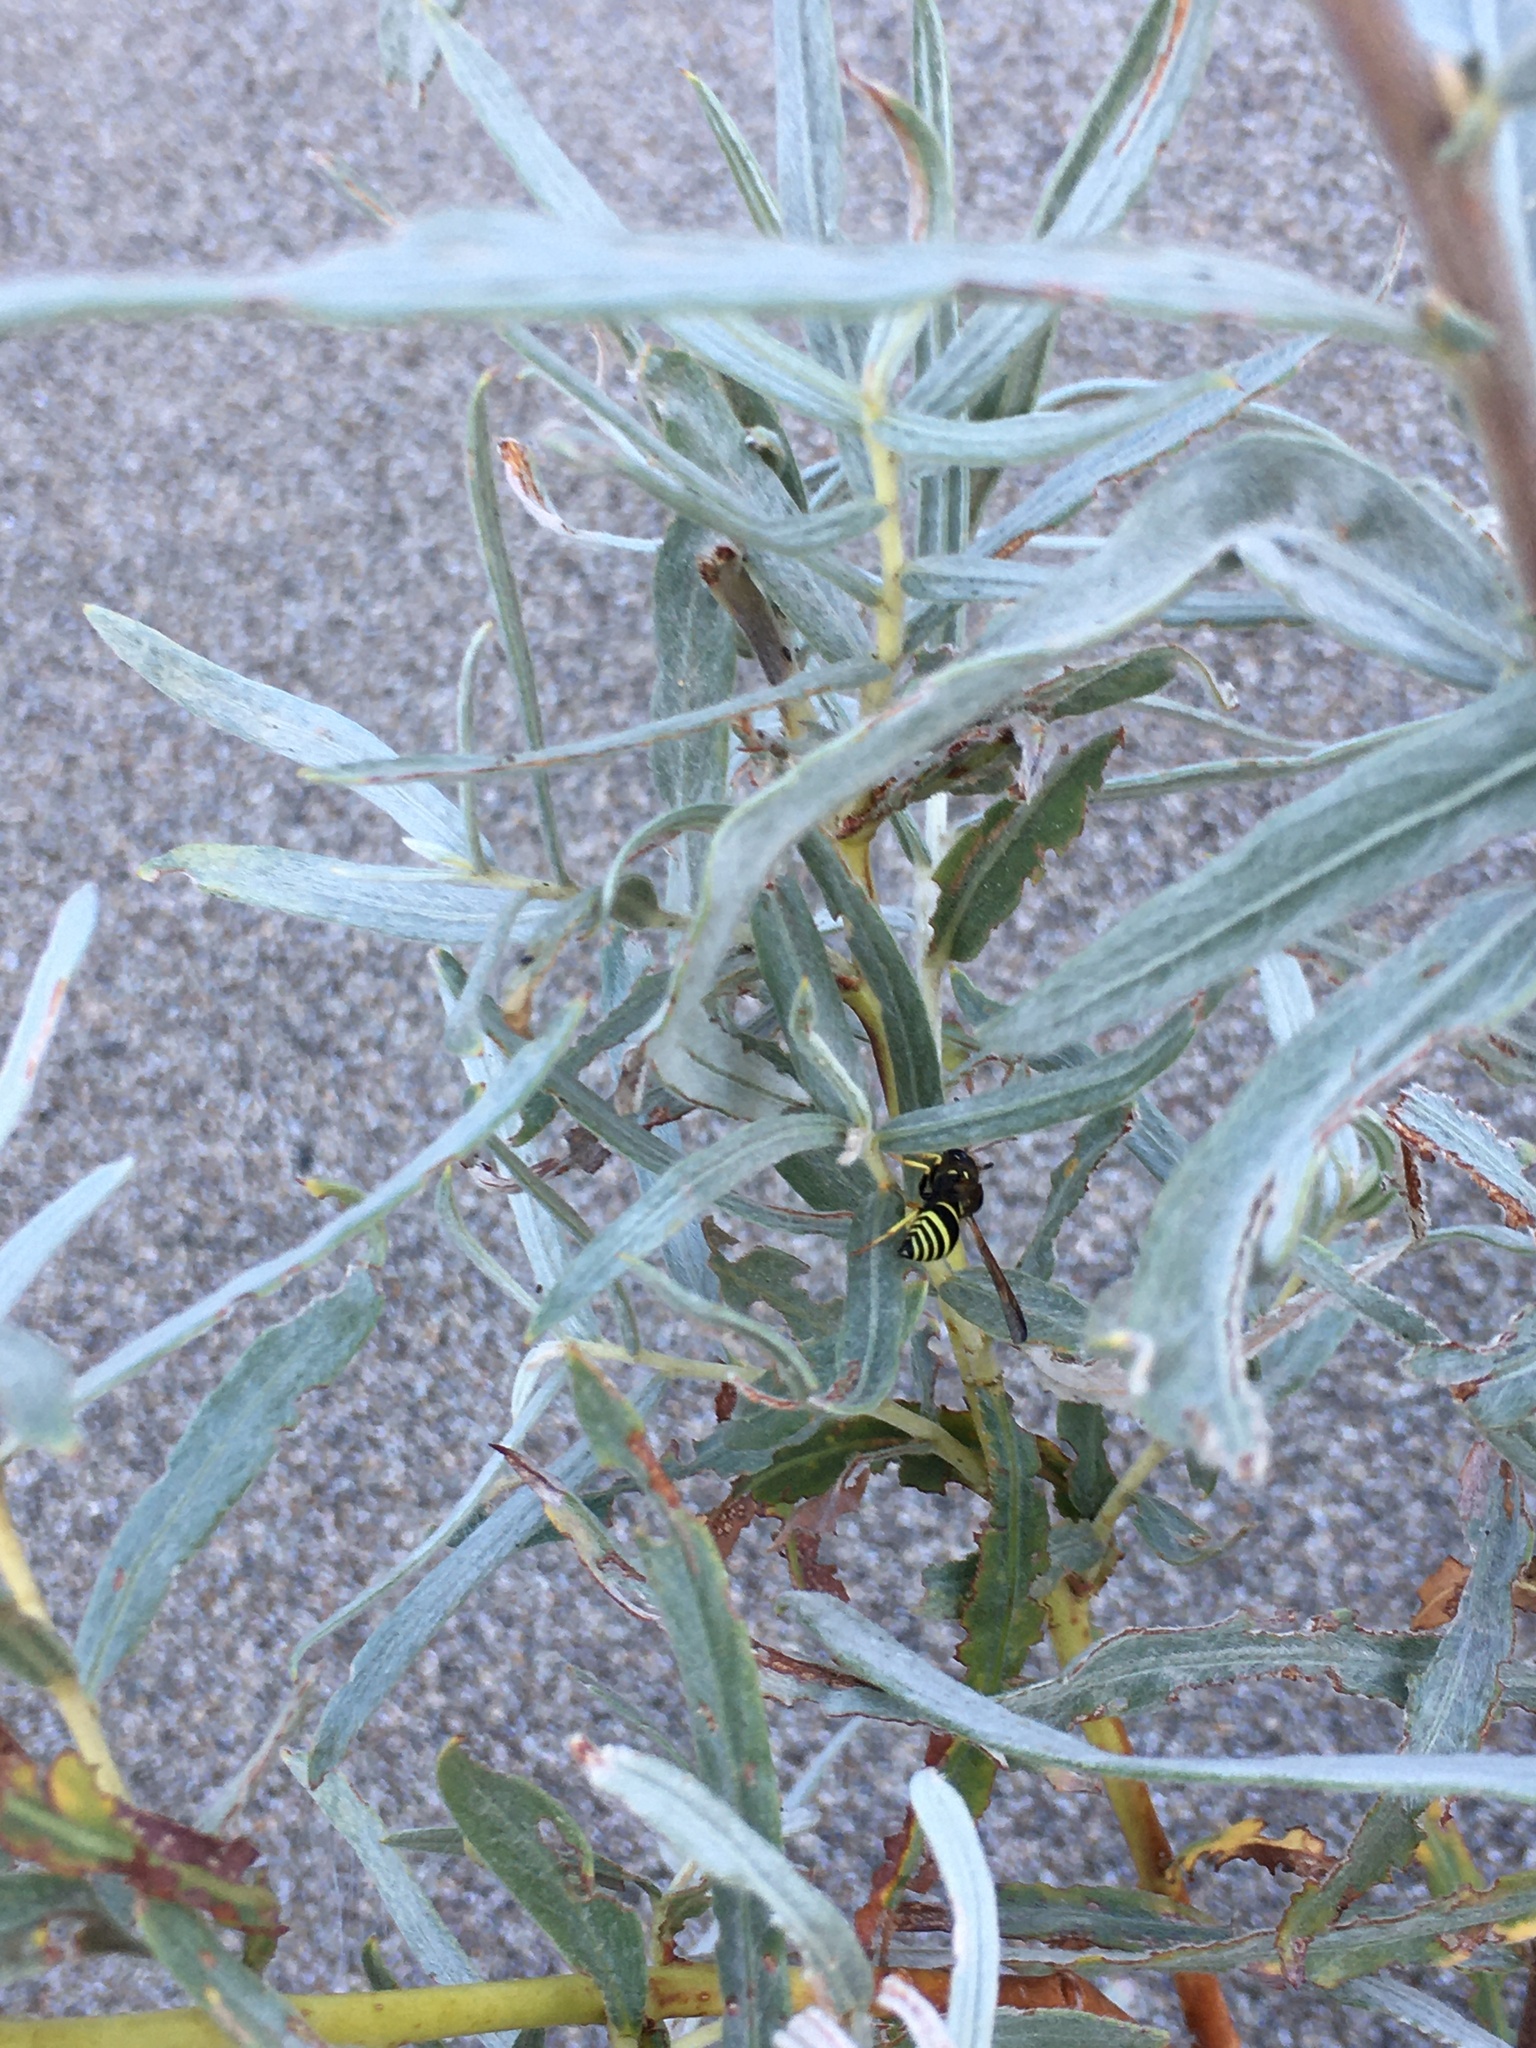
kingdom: Animalia
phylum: Arthropoda
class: Insecta
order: Hymenoptera
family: Vespidae
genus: Ancistrocerus
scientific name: Ancistrocerus
